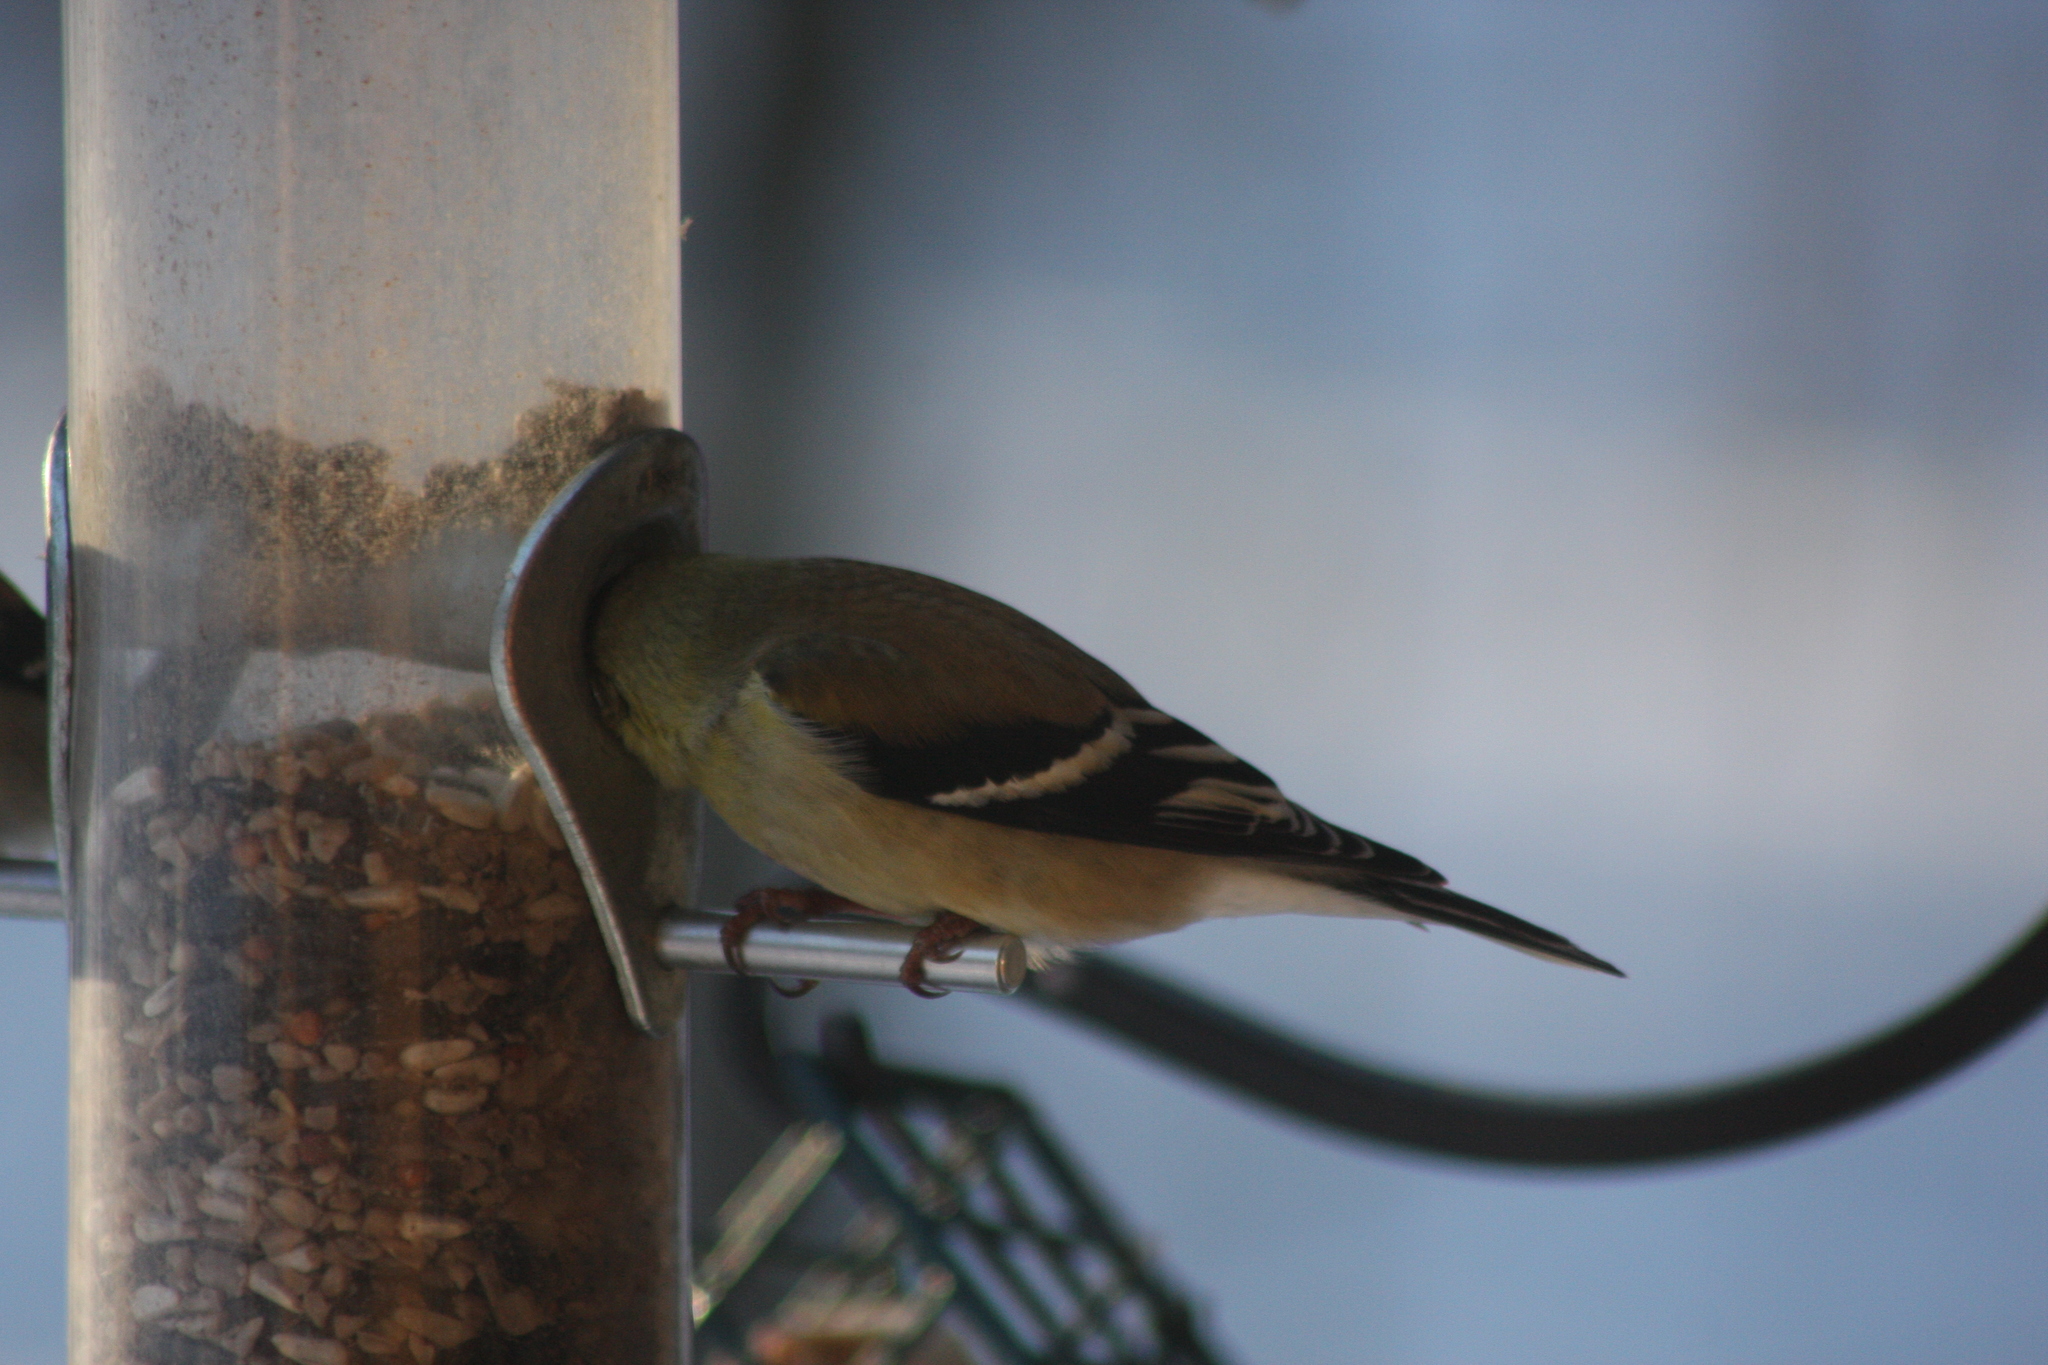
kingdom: Animalia
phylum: Chordata
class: Aves
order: Passeriformes
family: Fringillidae
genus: Spinus
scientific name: Spinus tristis
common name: American goldfinch
